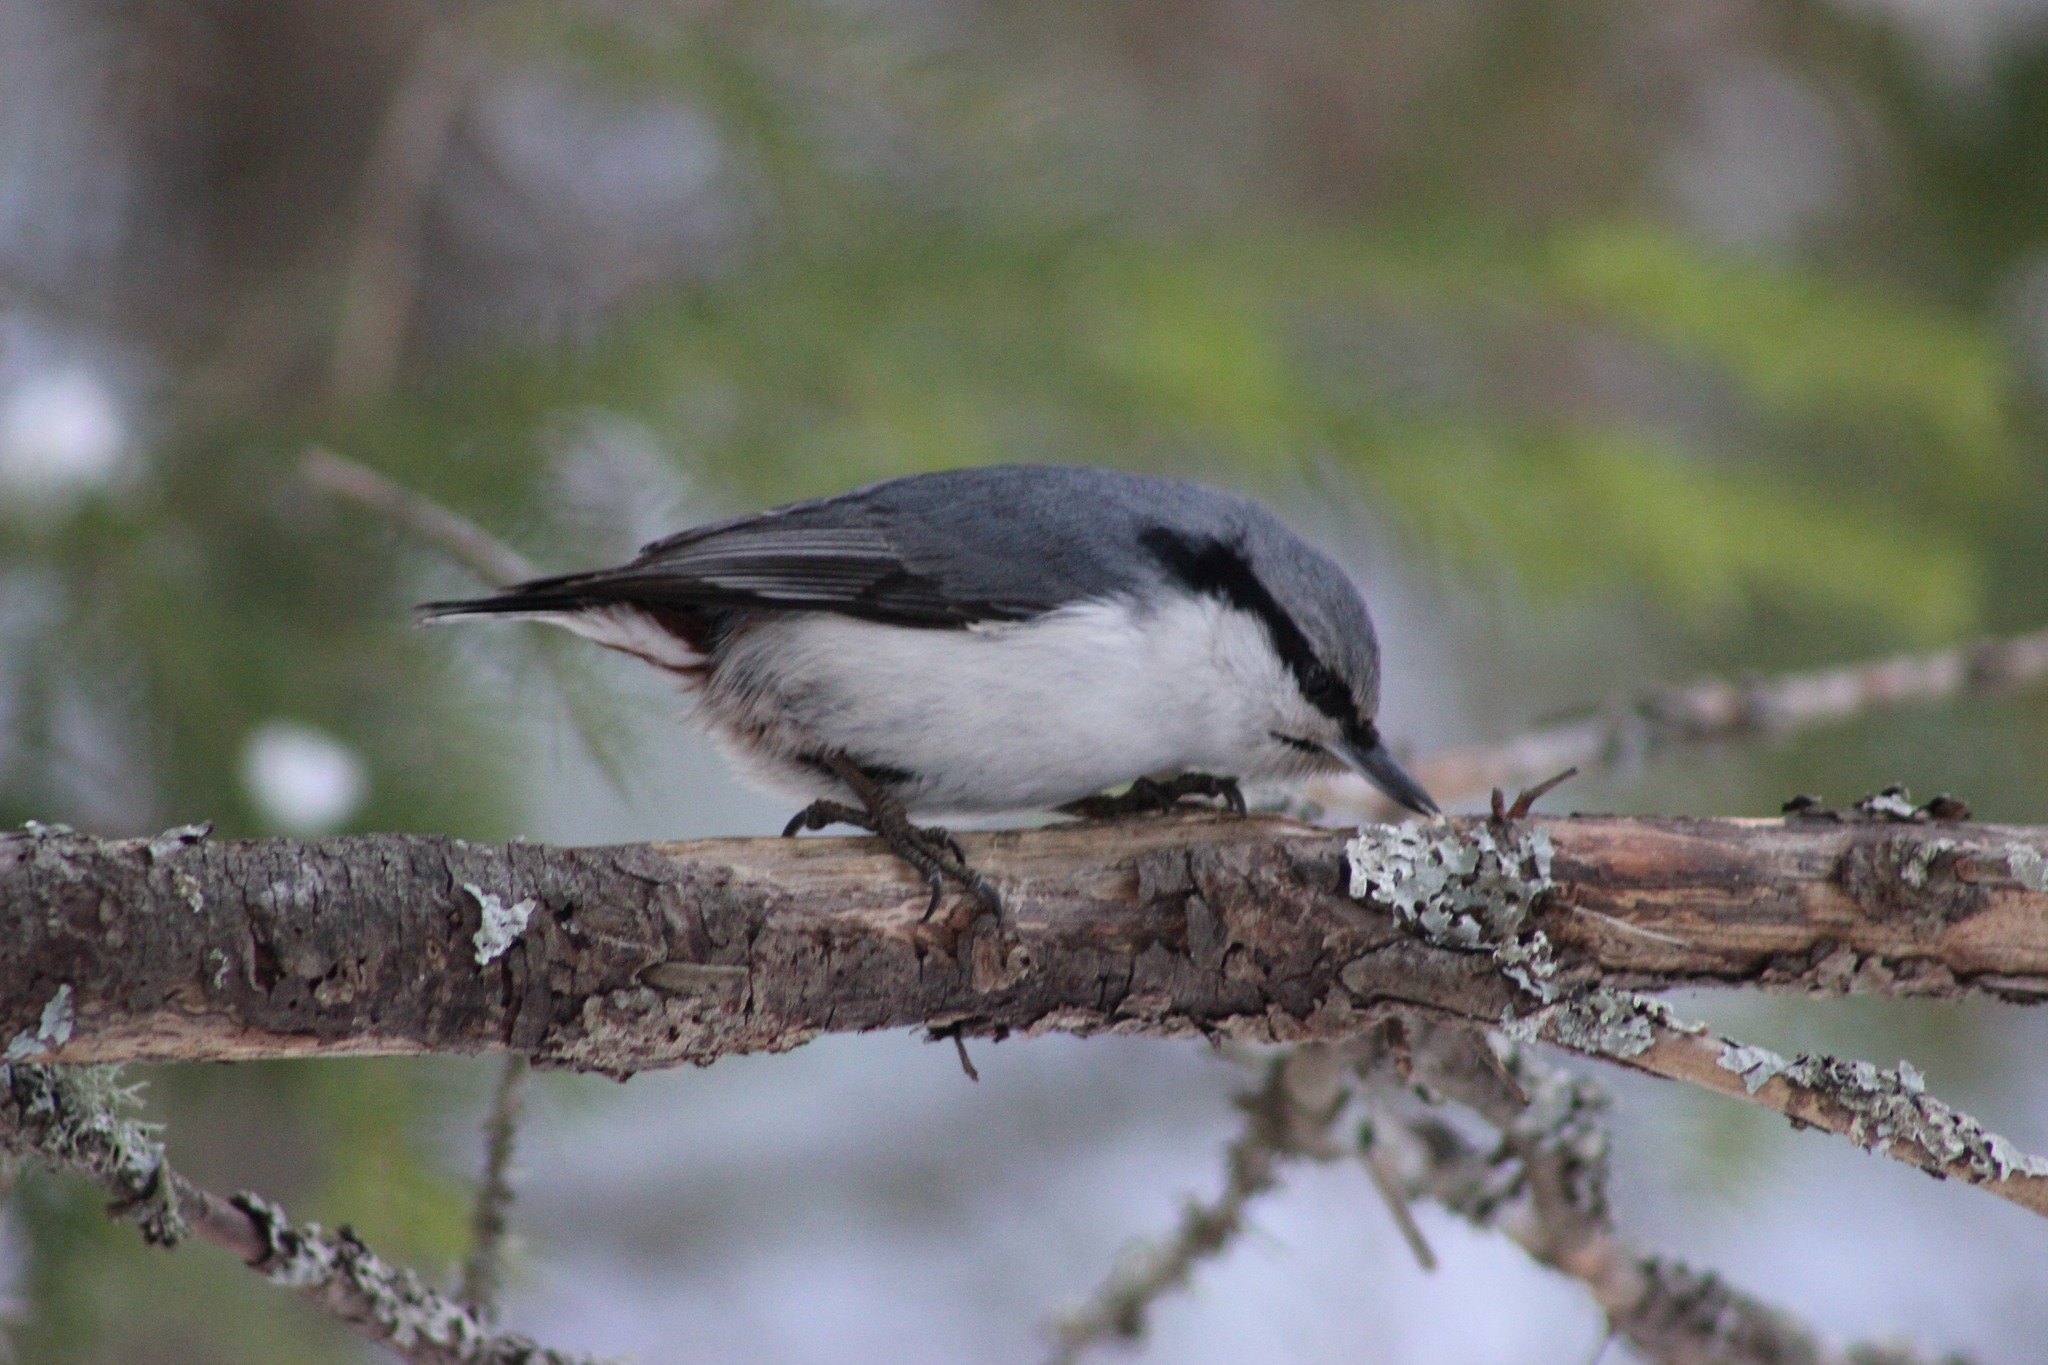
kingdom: Animalia
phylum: Chordata
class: Aves
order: Passeriformes
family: Sittidae
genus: Sitta
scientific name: Sitta europaea
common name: Eurasian nuthatch
